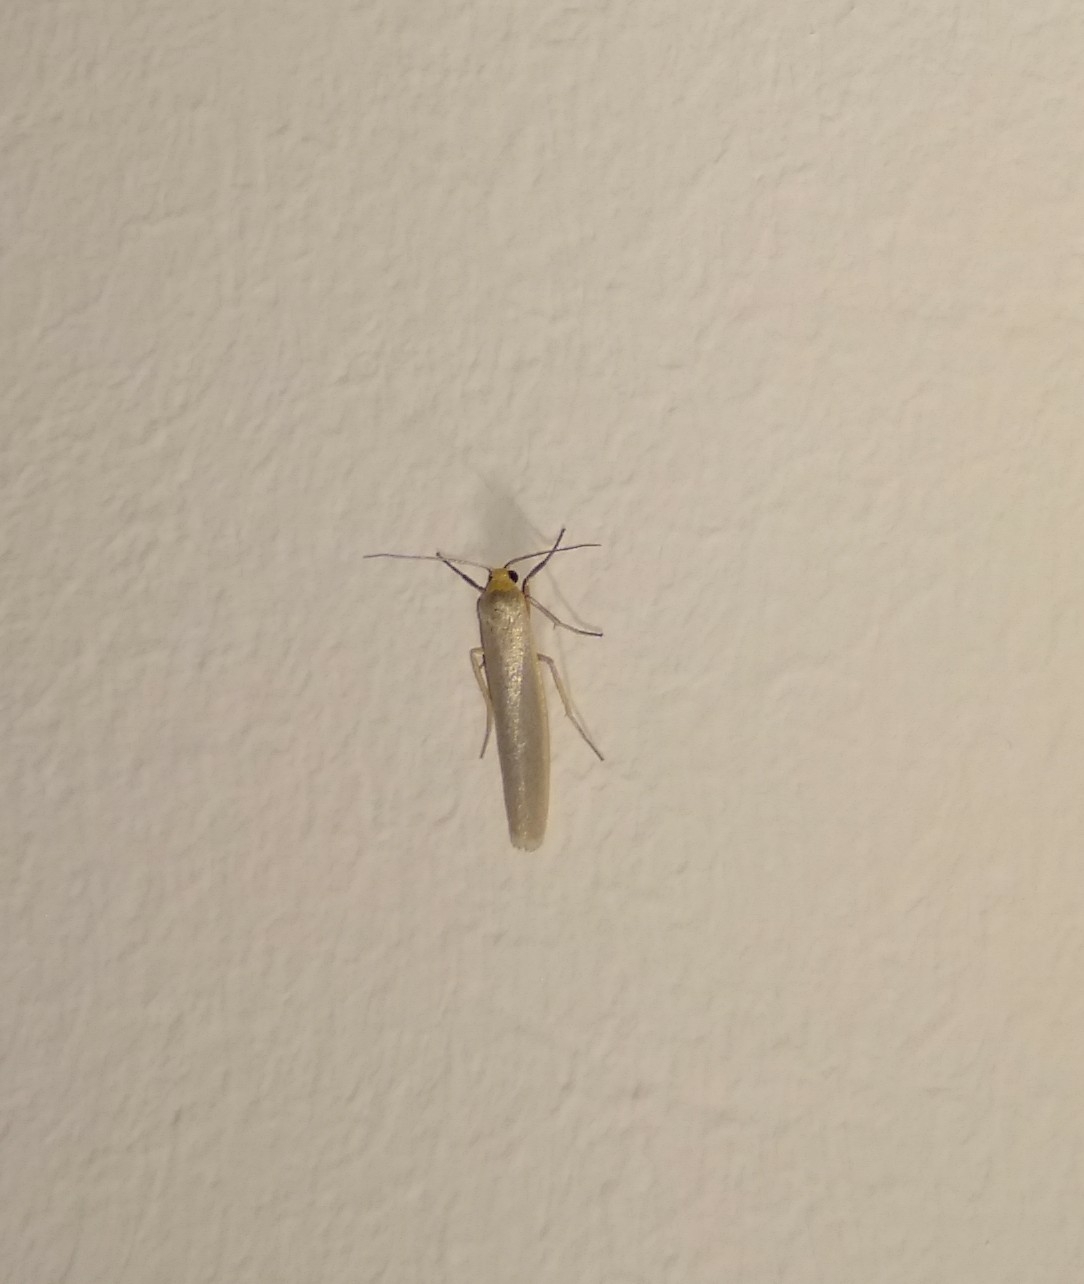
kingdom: Animalia
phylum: Arthropoda
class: Insecta
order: Lepidoptera
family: Erebidae
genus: Eilema
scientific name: Eilema caniola
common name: Hoary footman
